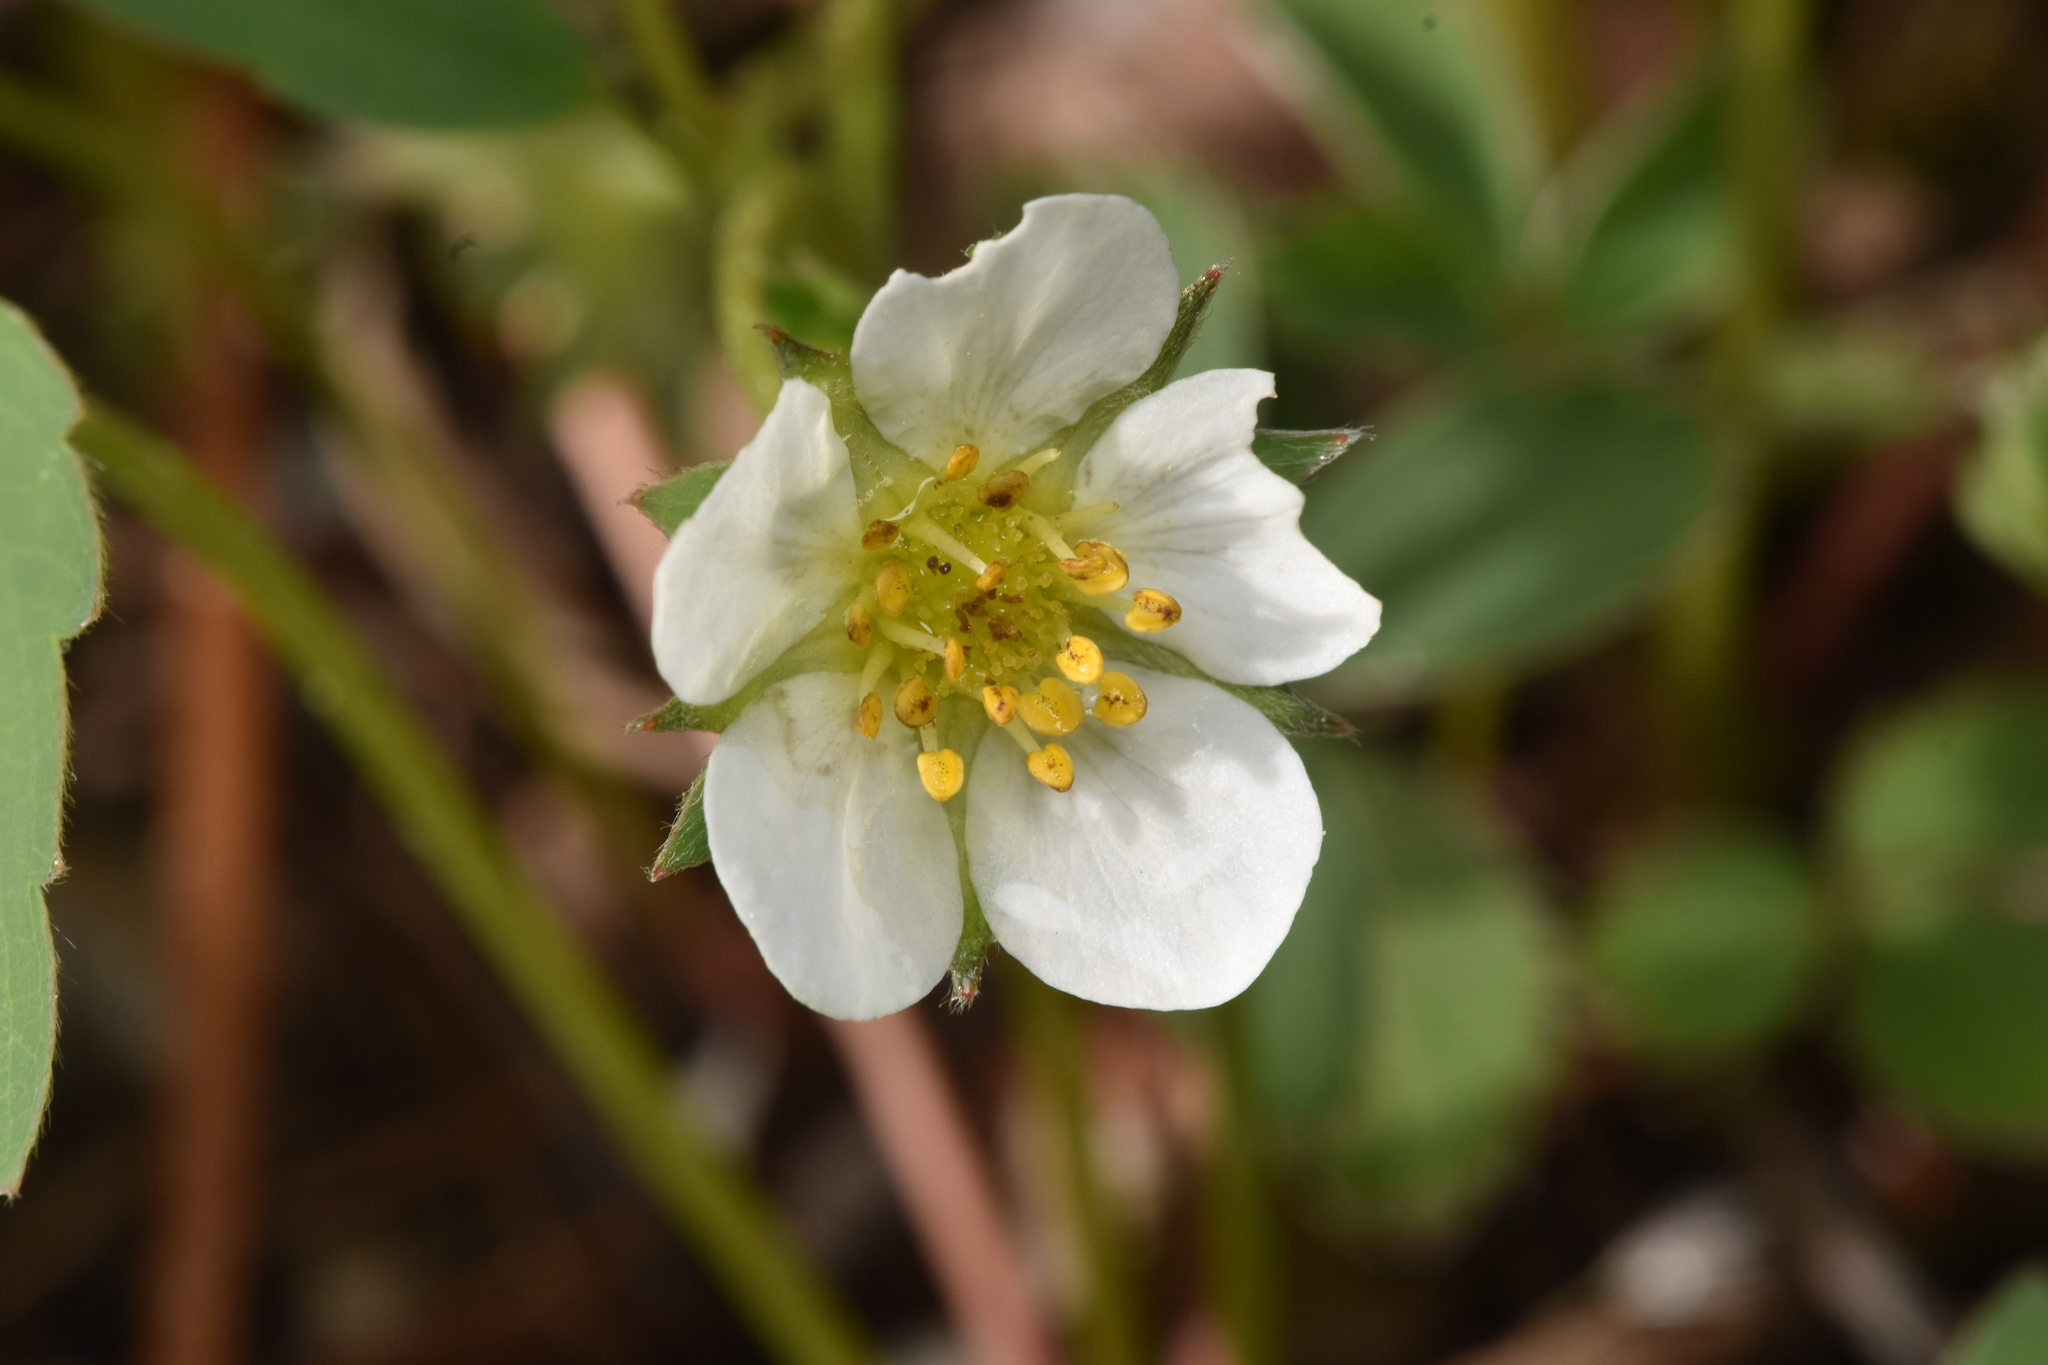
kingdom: Plantae
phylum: Tracheophyta
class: Magnoliopsida
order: Rosales
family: Rosaceae
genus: Fragaria
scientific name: Fragaria virginiana
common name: Thickleaved wild strawberry
